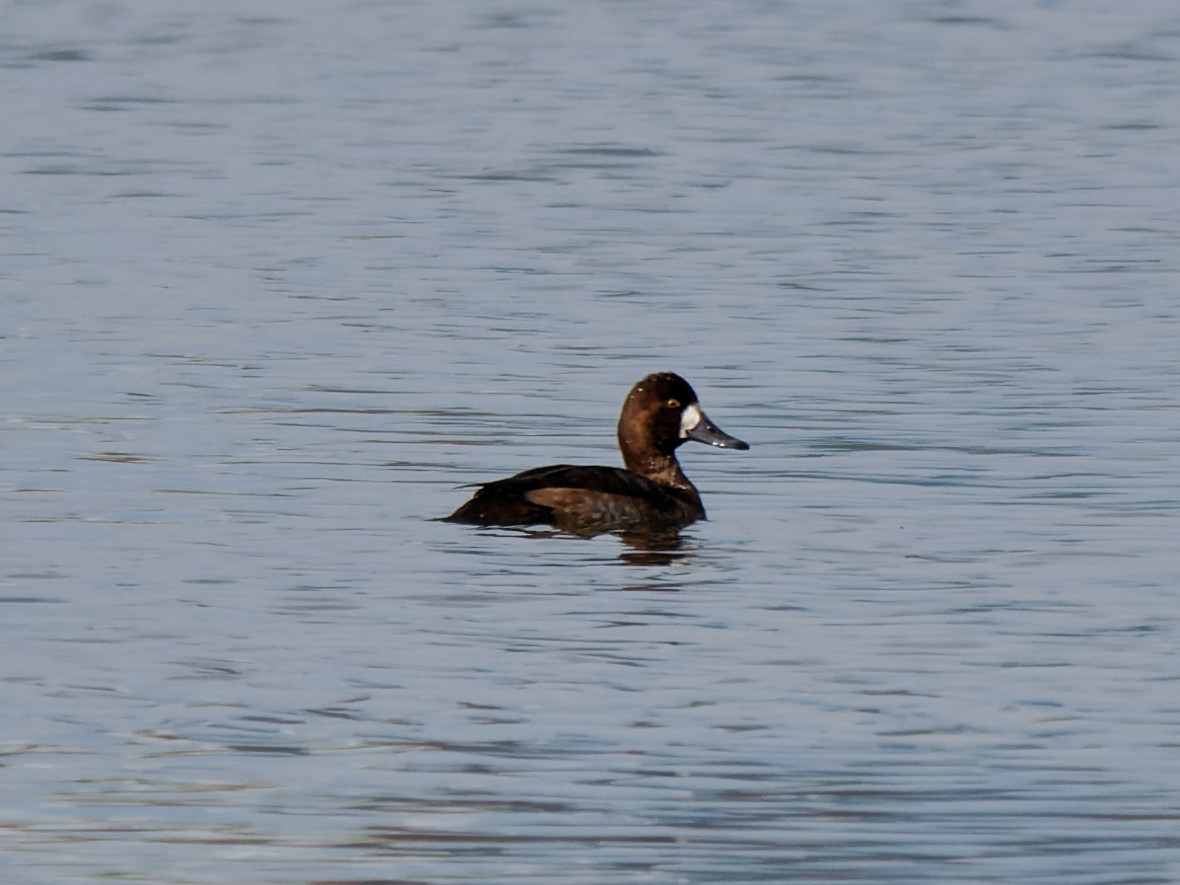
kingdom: Animalia
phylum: Chordata
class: Aves
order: Anseriformes
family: Anatidae
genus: Aythya
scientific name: Aythya marila
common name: Greater scaup
